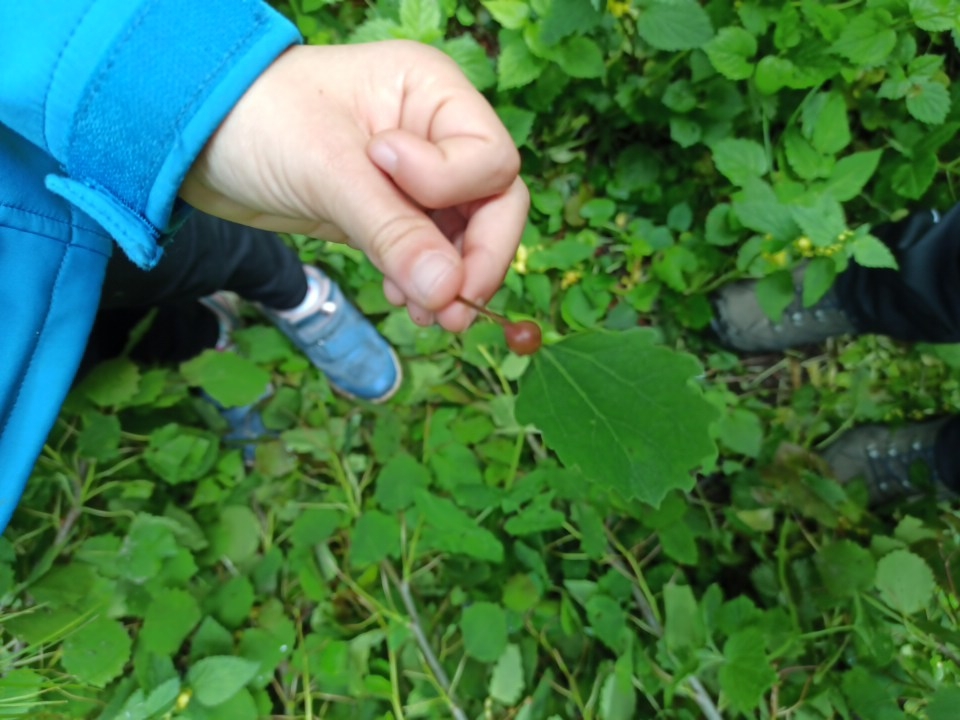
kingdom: Animalia
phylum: Arthropoda
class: Insecta
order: Diptera
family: Cecidomyiidae
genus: Contarinia
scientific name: Contarinia petioli
